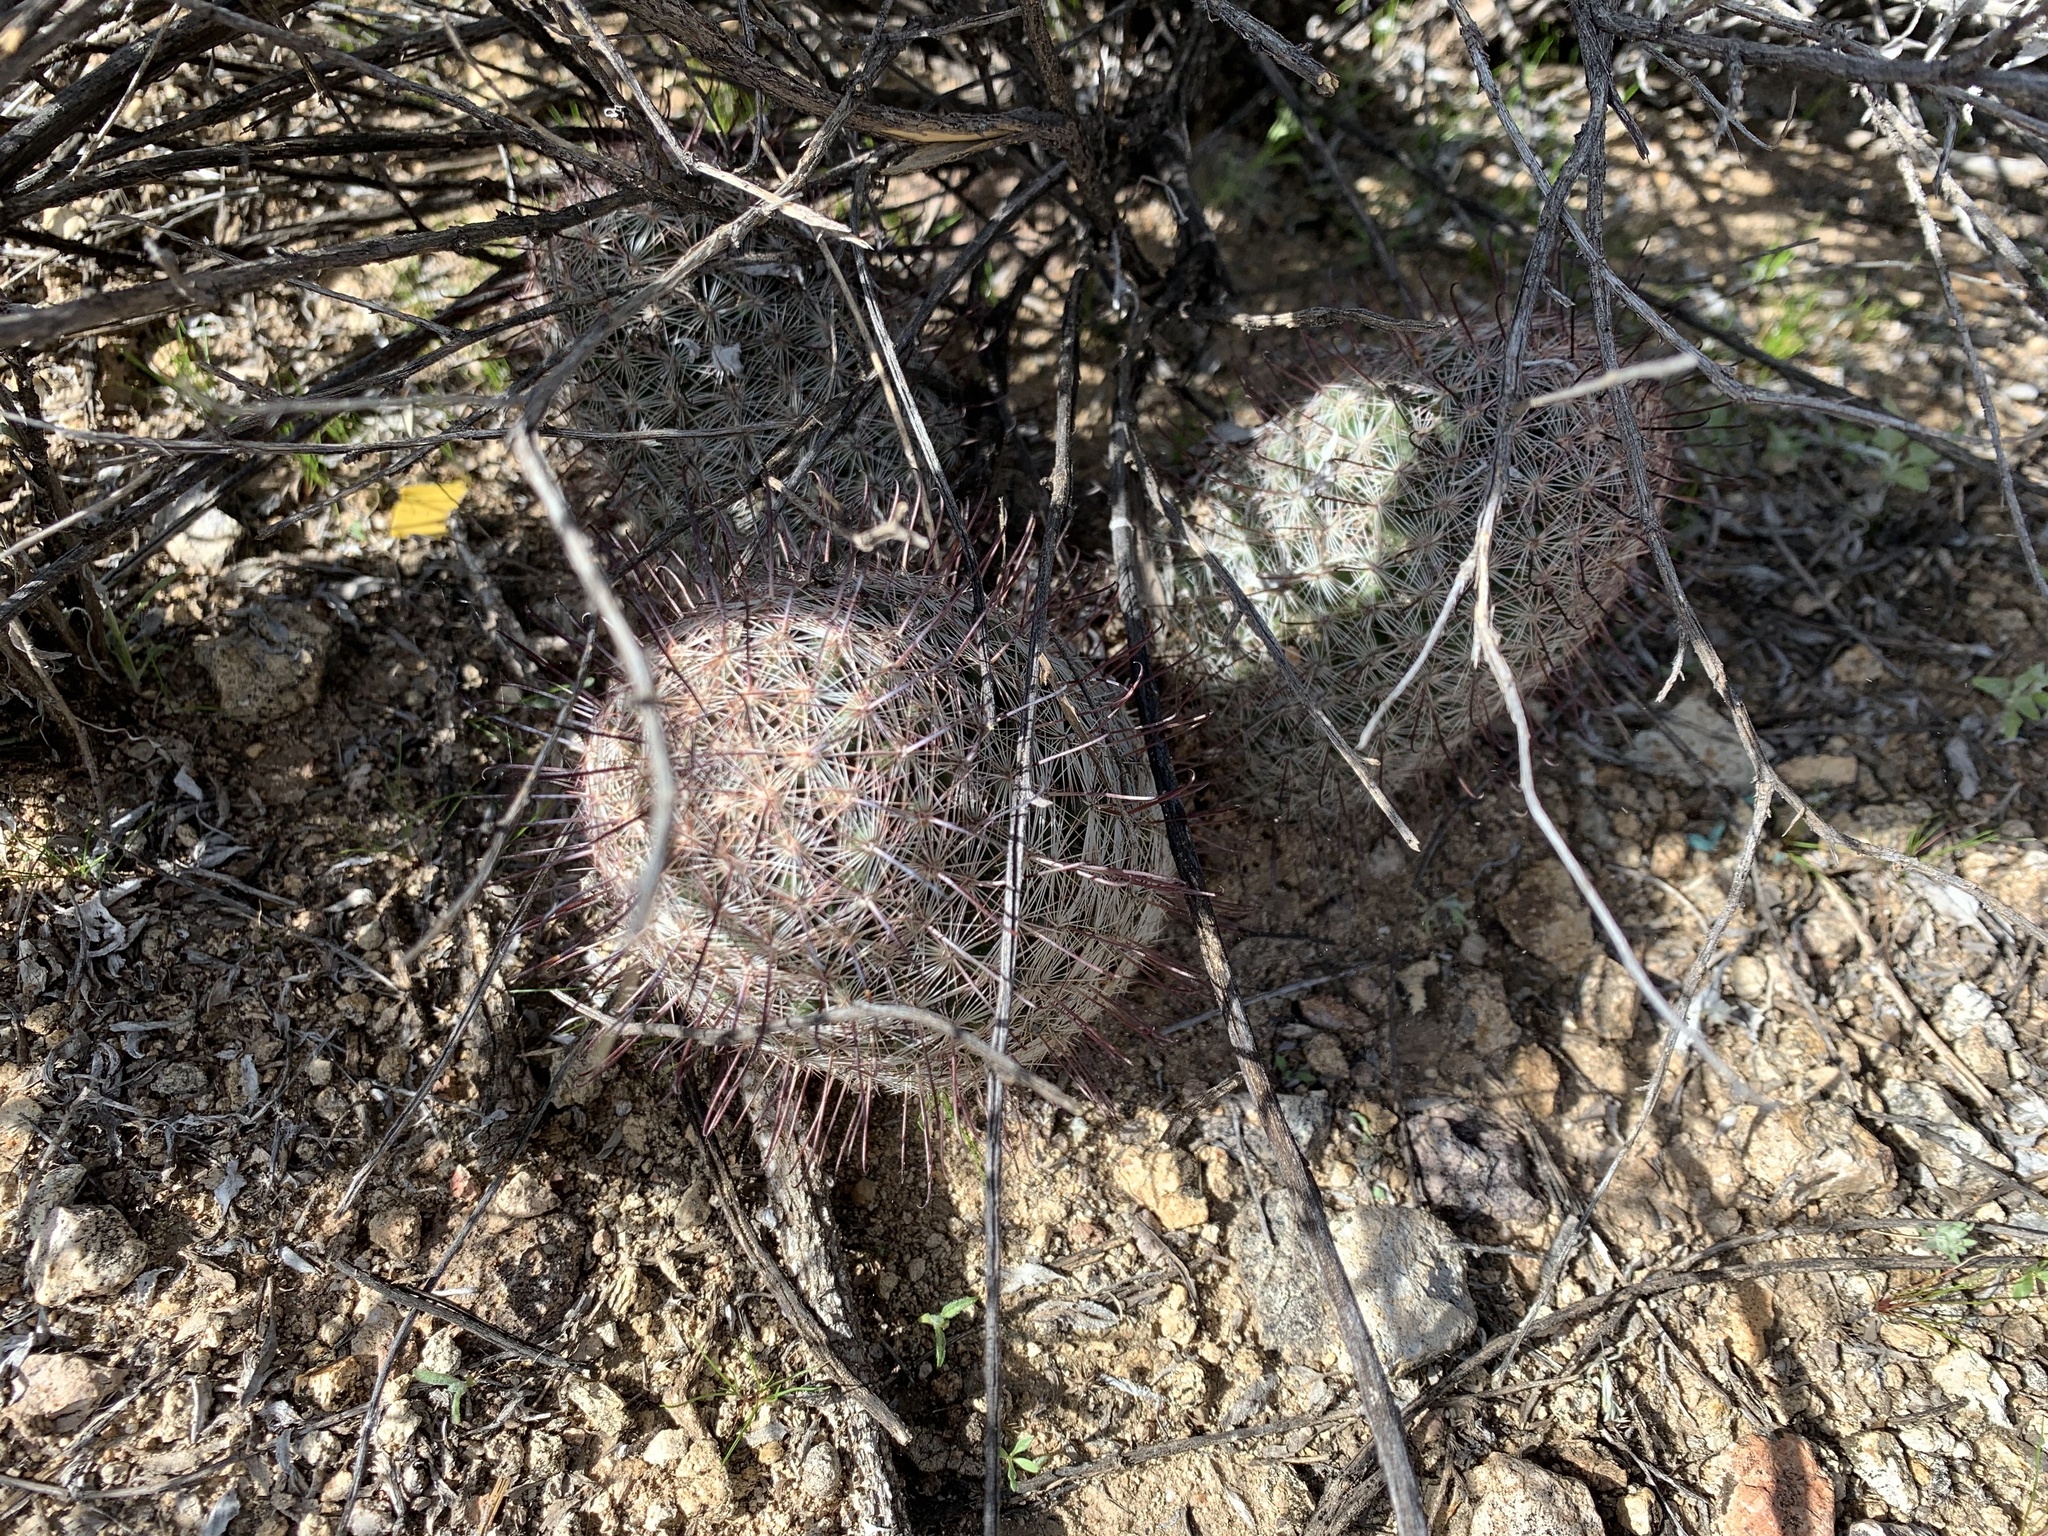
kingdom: Plantae
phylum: Tracheophyta
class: Magnoliopsida
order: Caryophyllales
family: Cactaceae
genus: Cochemiea
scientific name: Cochemiea grahamii
